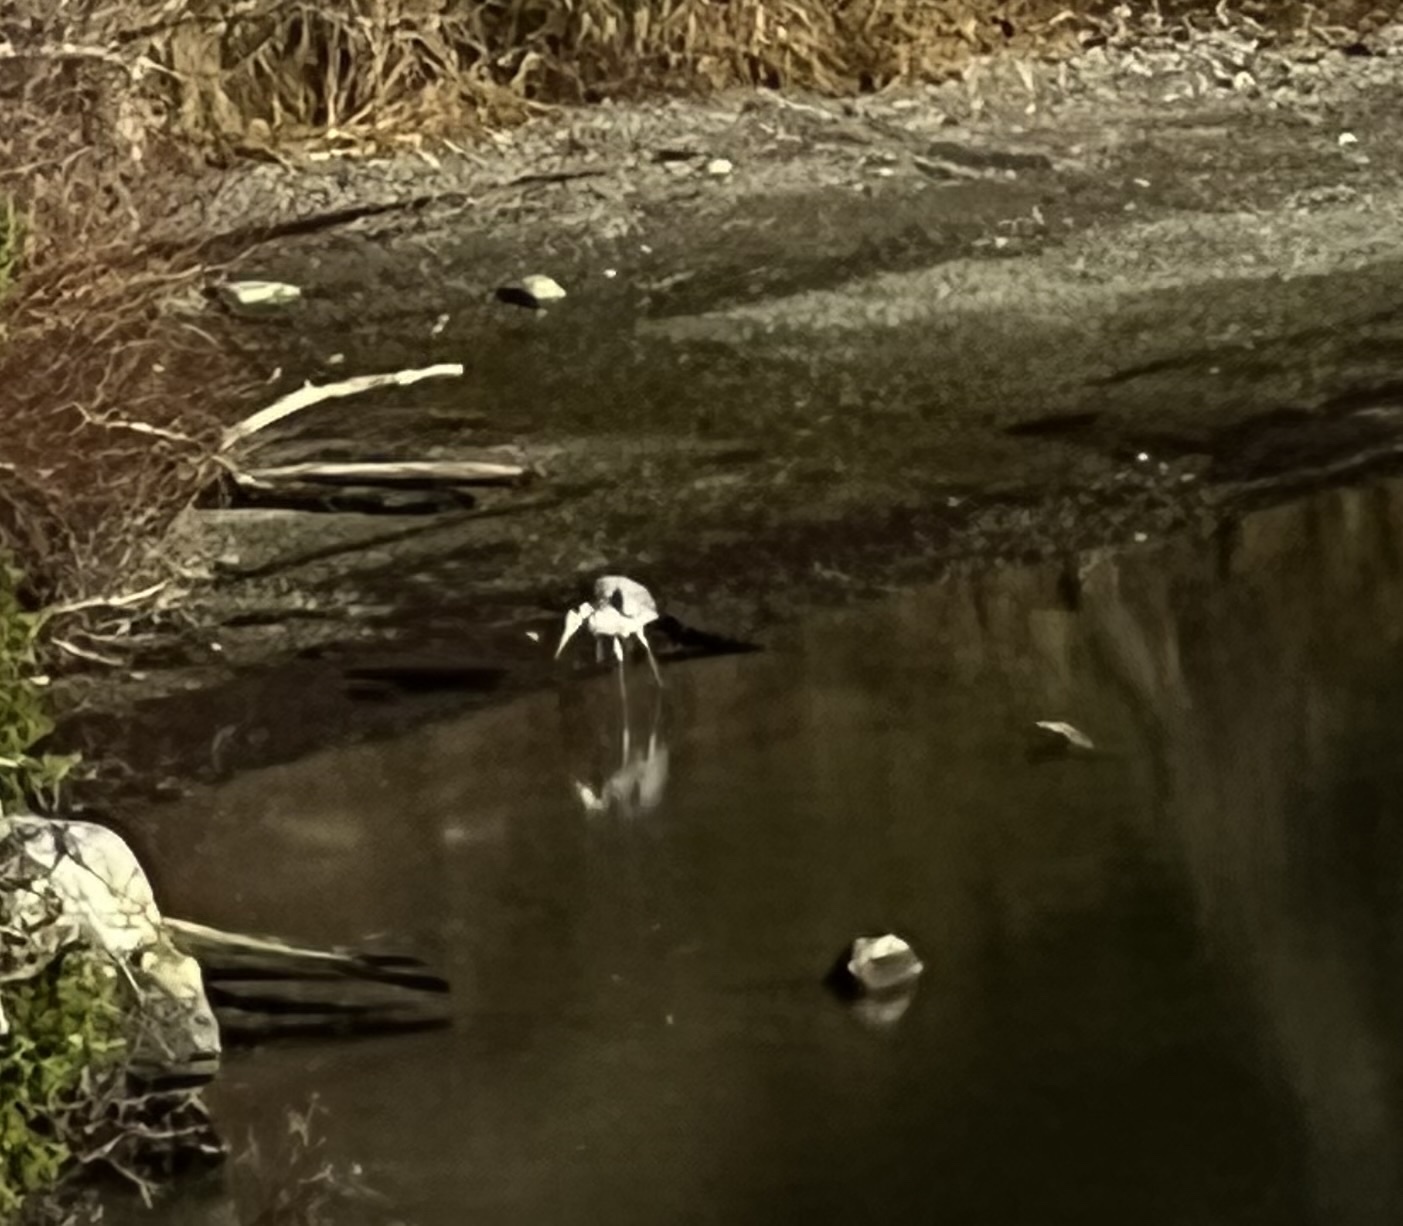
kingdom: Animalia
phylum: Chordata
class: Aves
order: Pelecaniformes
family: Ardeidae
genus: Ardea
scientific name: Ardea herodias
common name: Great blue heron
